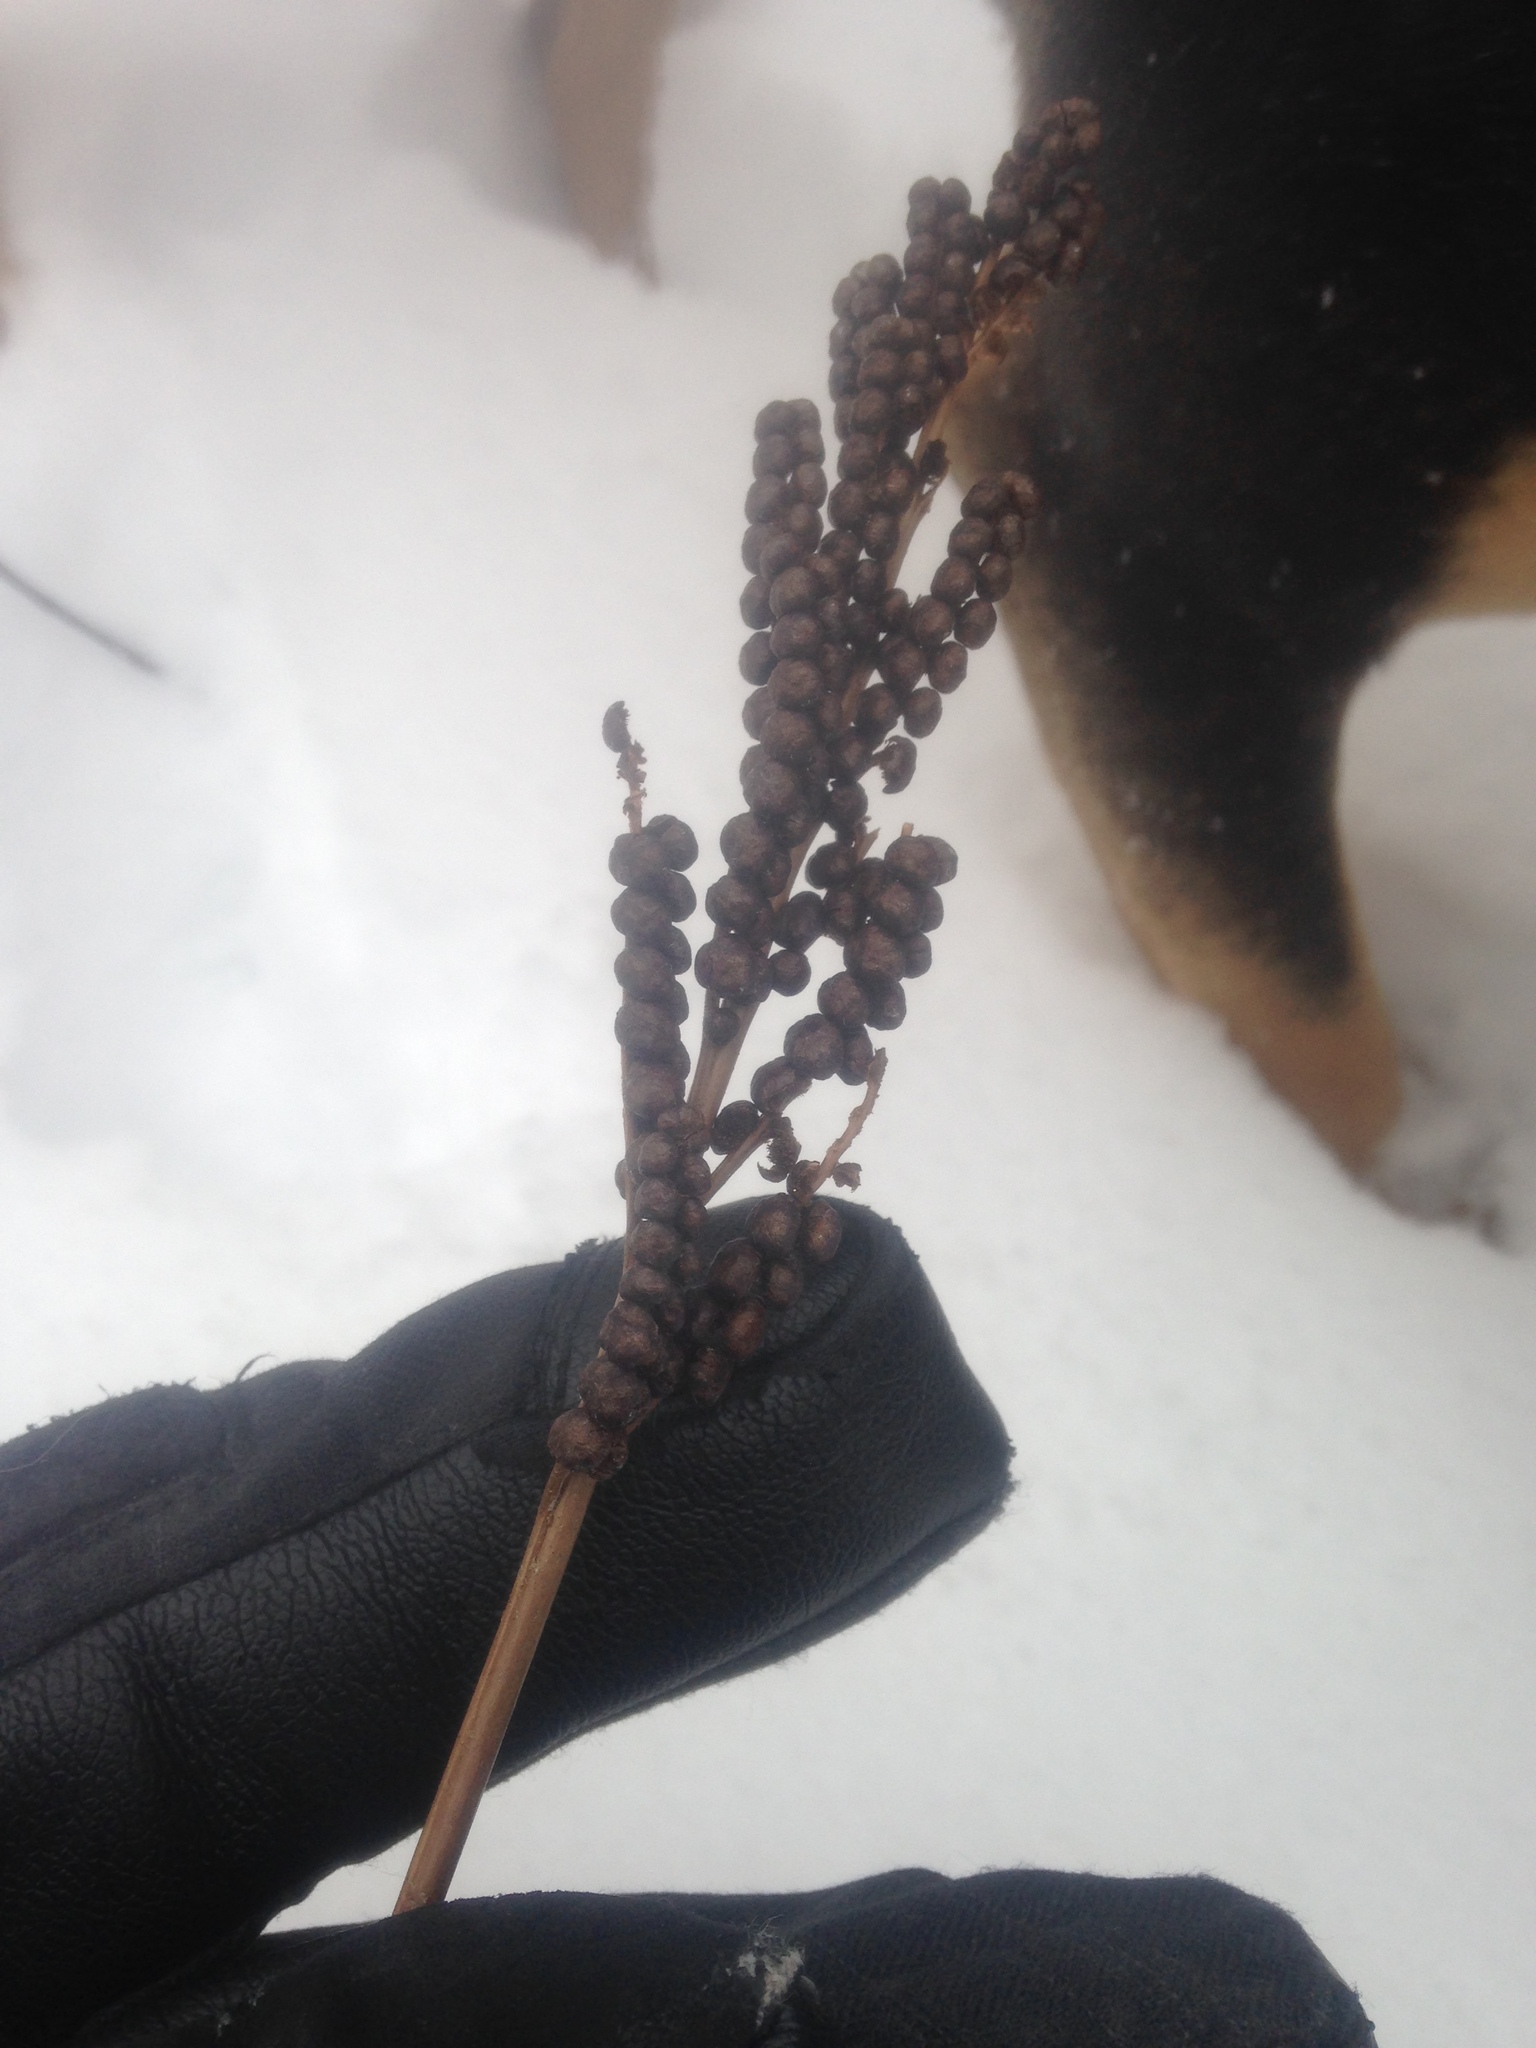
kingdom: Plantae
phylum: Tracheophyta
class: Polypodiopsida
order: Polypodiales
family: Onocleaceae
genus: Onoclea
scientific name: Onoclea sensibilis
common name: Sensitive fern
